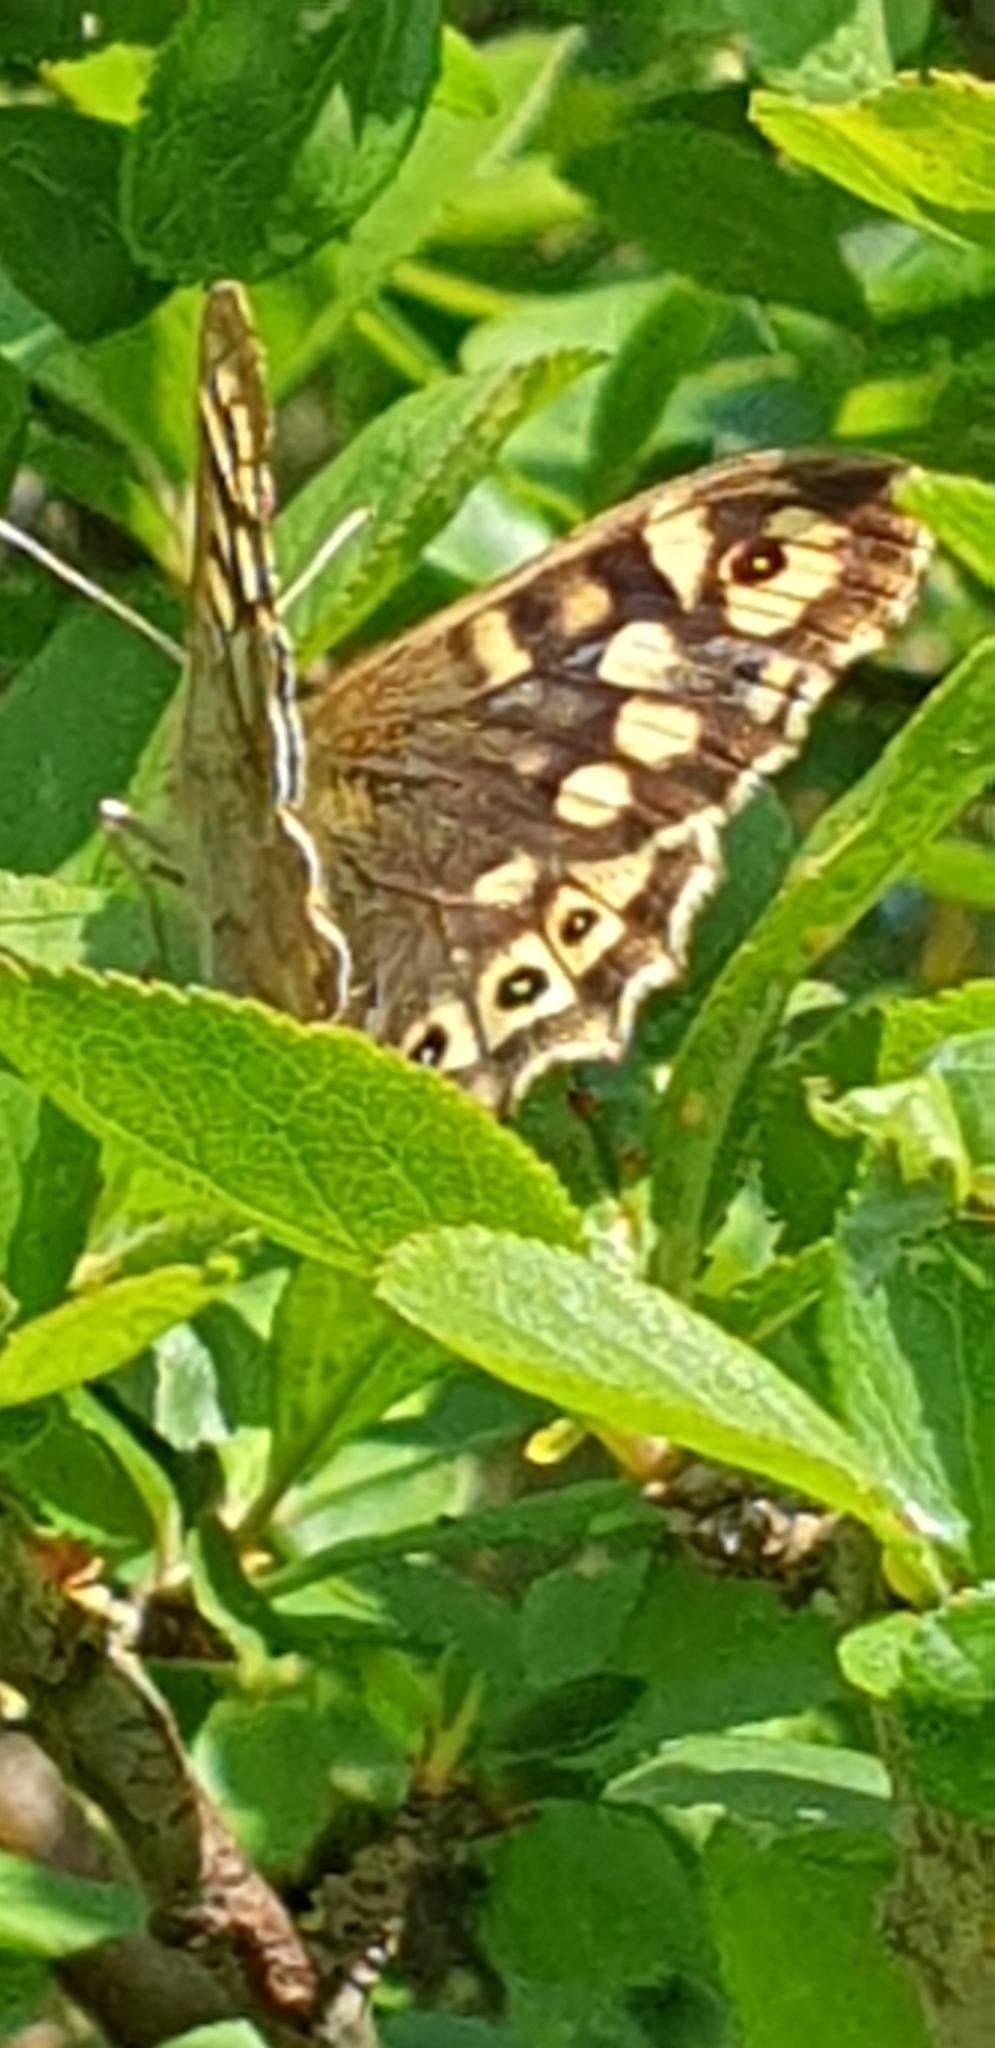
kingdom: Animalia
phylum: Arthropoda
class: Insecta
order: Lepidoptera
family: Nymphalidae
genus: Pararge
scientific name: Pararge aegeria
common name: Speckled wood
